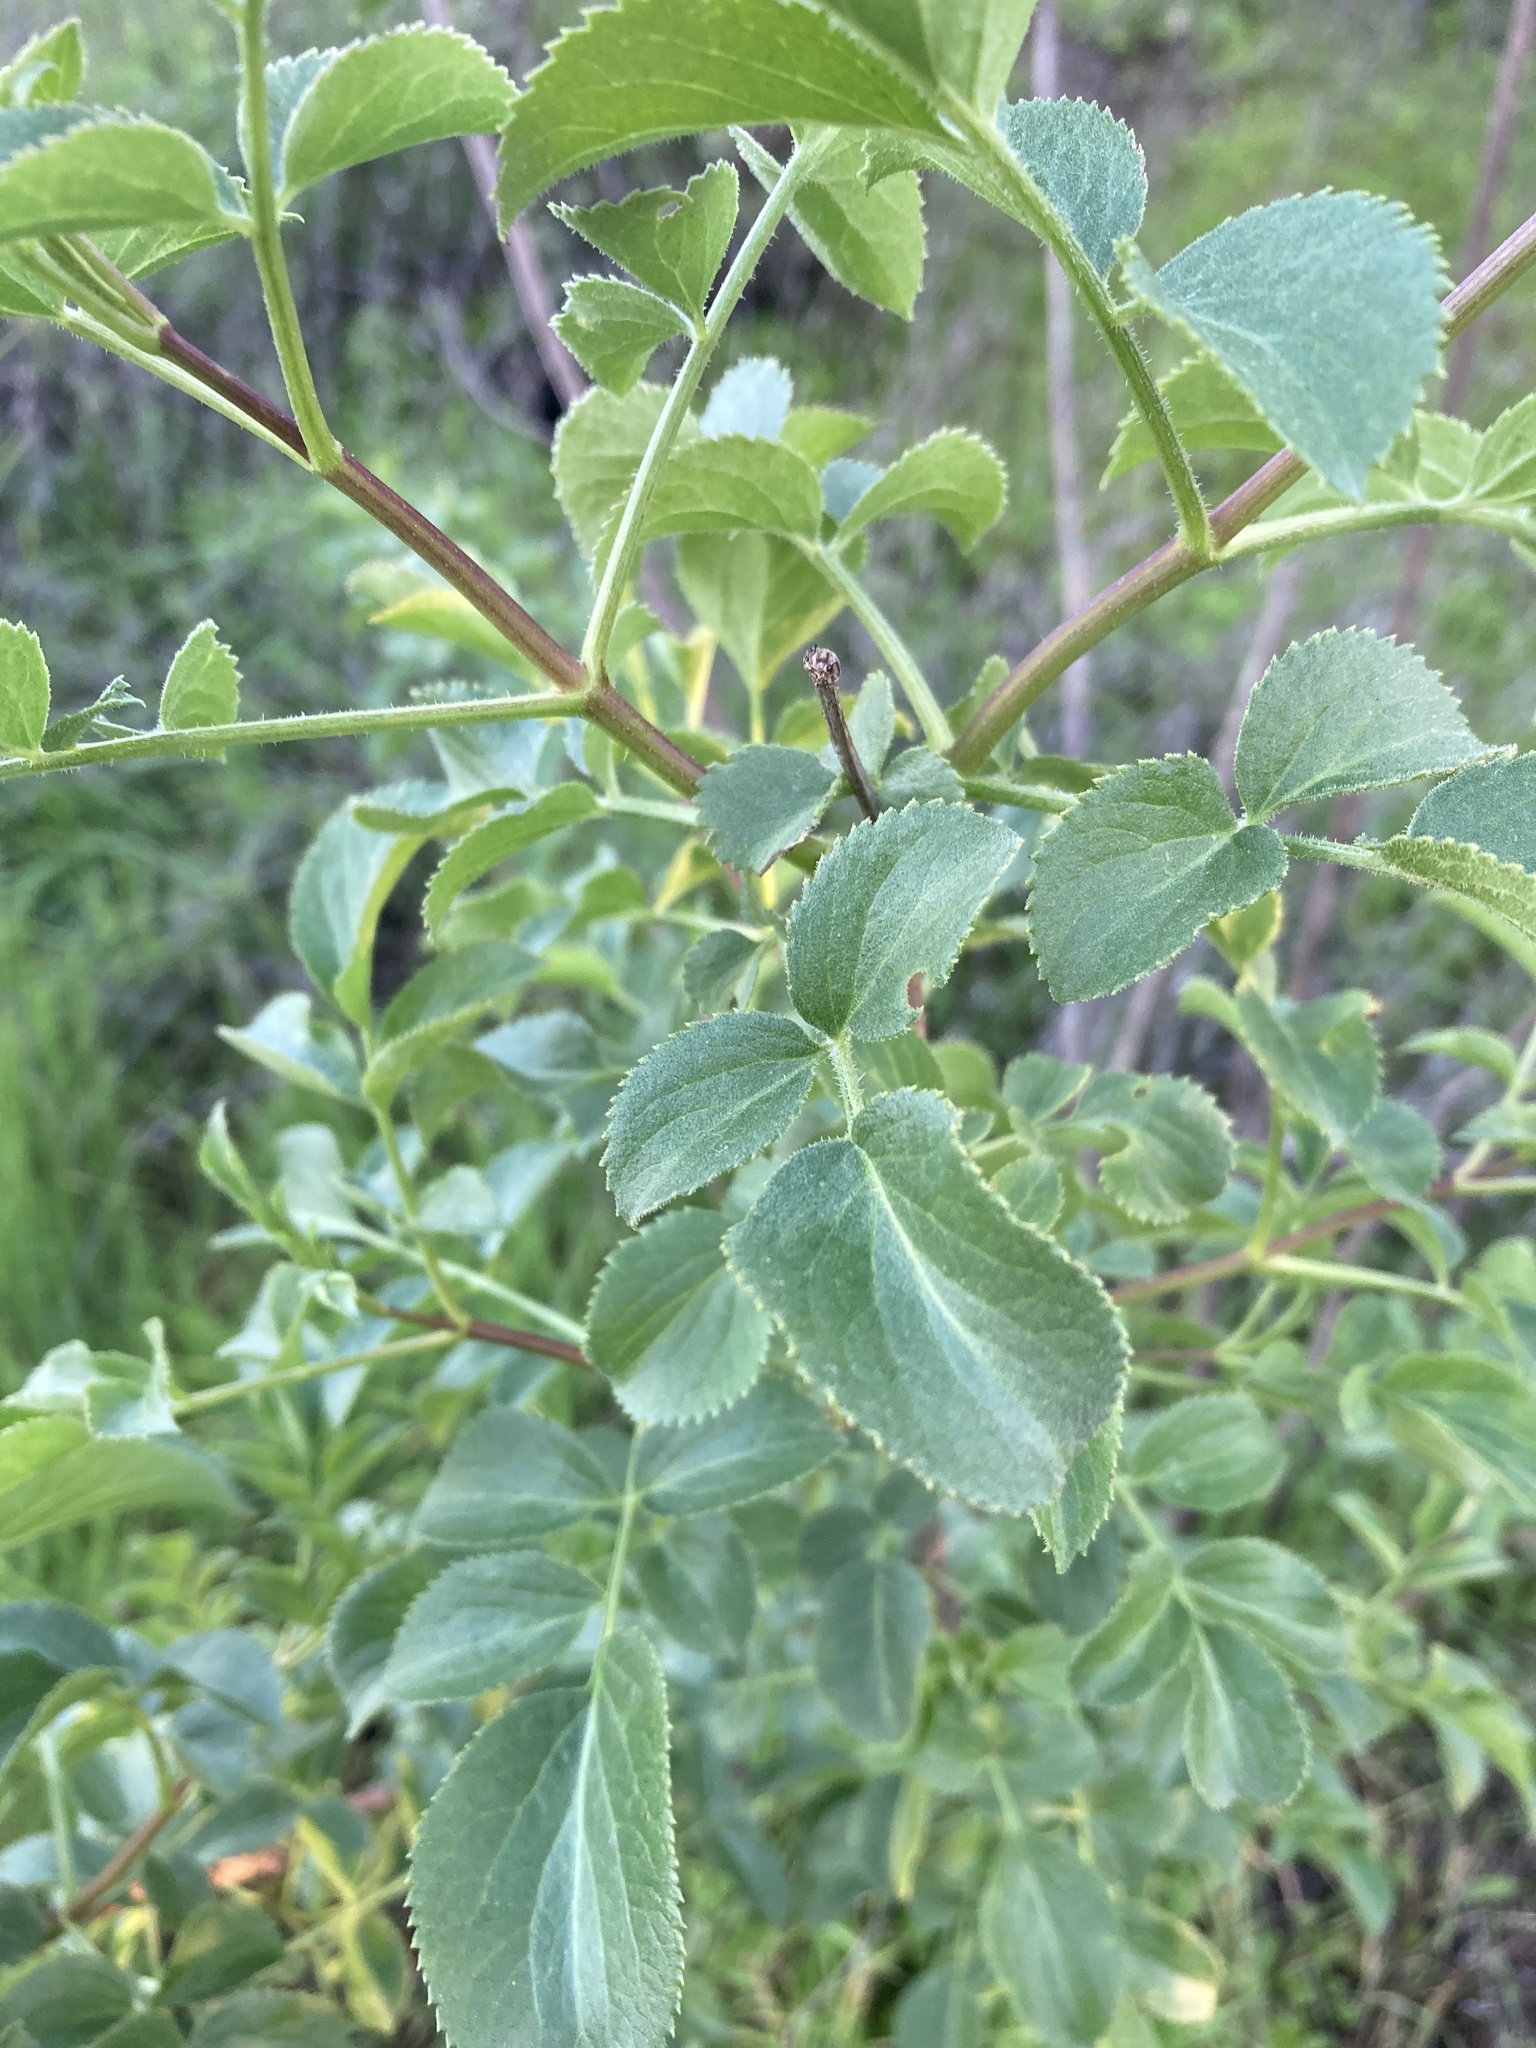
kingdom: Plantae
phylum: Tracheophyta
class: Magnoliopsida
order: Dipsacales
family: Viburnaceae
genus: Sambucus
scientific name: Sambucus cerulea
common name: Blue elder
